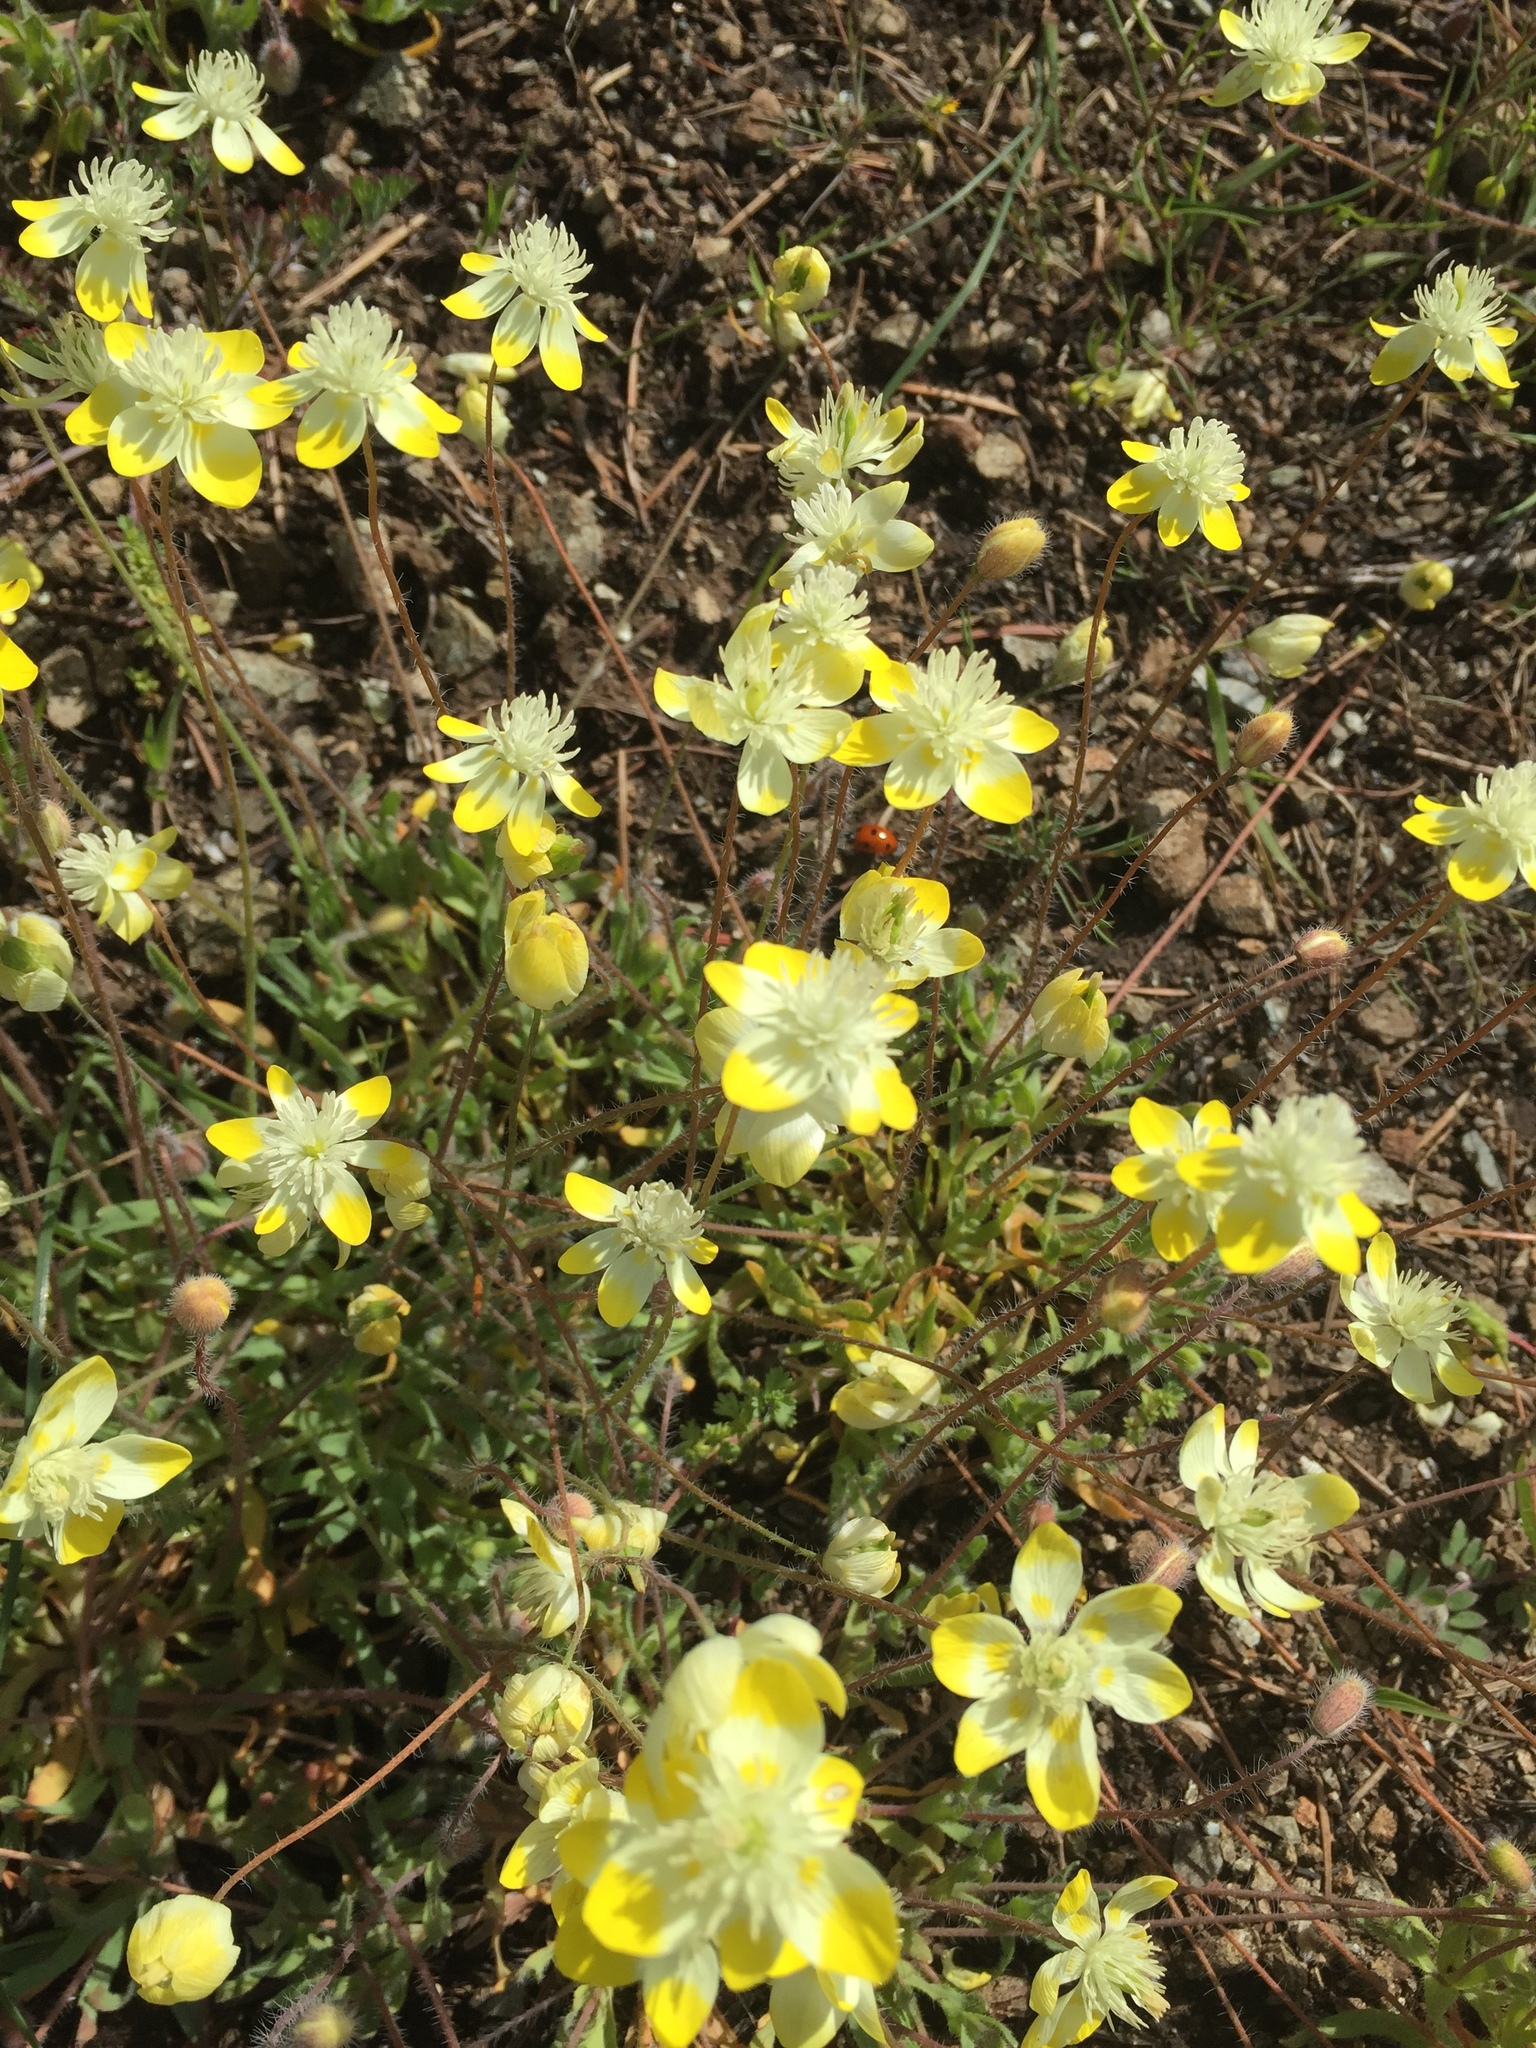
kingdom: Plantae
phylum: Tracheophyta
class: Magnoliopsida
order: Ranunculales
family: Papaveraceae
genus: Platystemon
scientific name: Platystemon californicus
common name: Cream-cups
